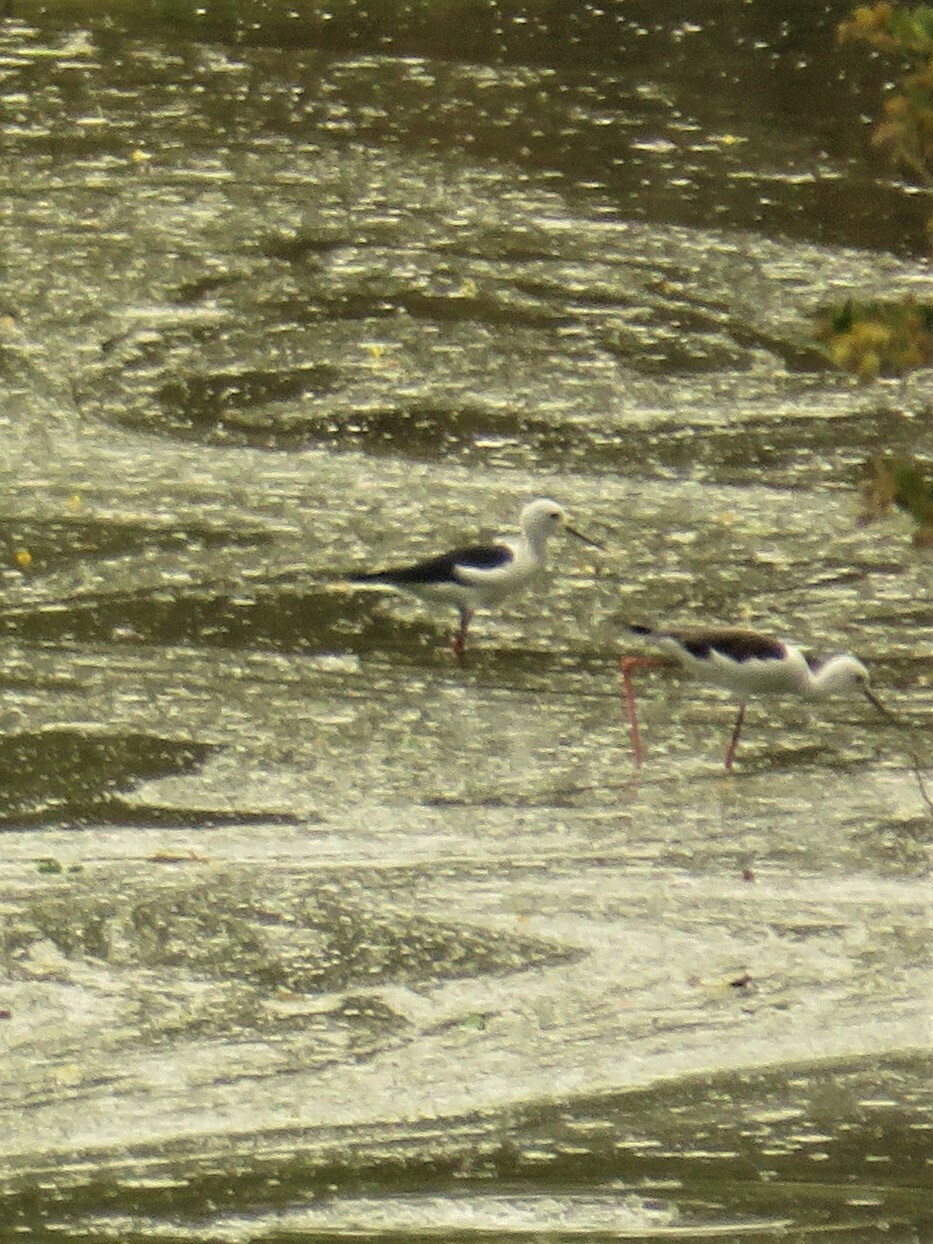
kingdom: Animalia
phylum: Chordata
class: Aves
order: Charadriiformes
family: Recurvirostridae
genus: Himantopus
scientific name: Himantopus himantopus
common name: Black-winged stilt
